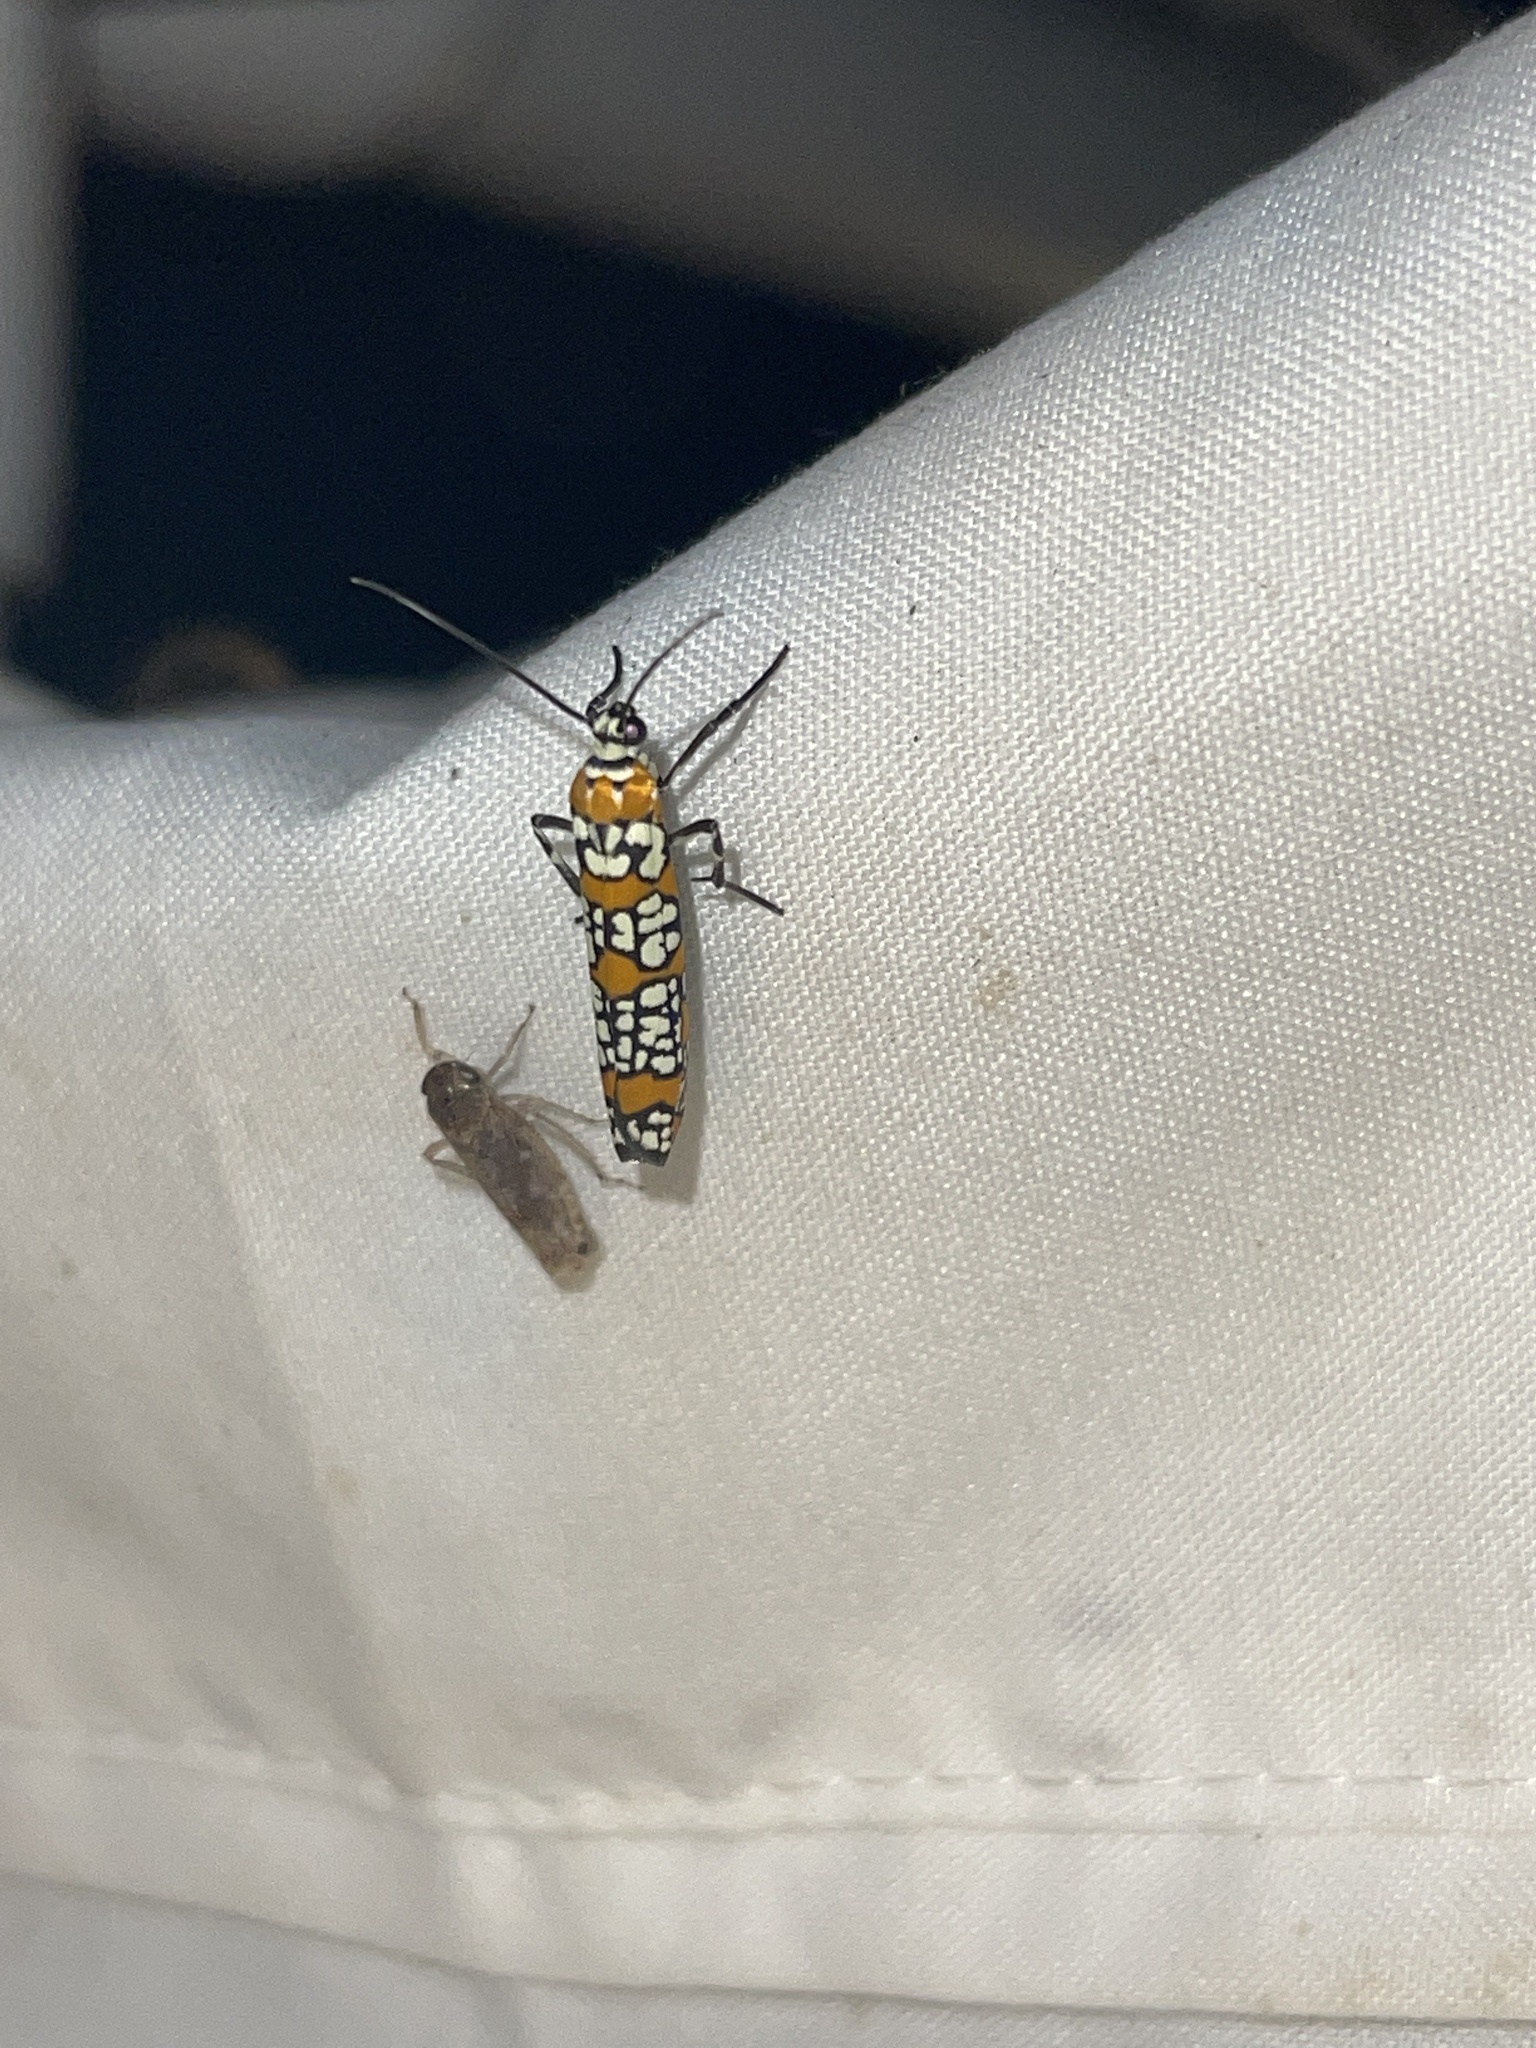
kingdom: Animalia
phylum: Arthropoda
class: Insecta
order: Lepidoptera
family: Attevidae
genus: Atteva
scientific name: Atteva punctella
